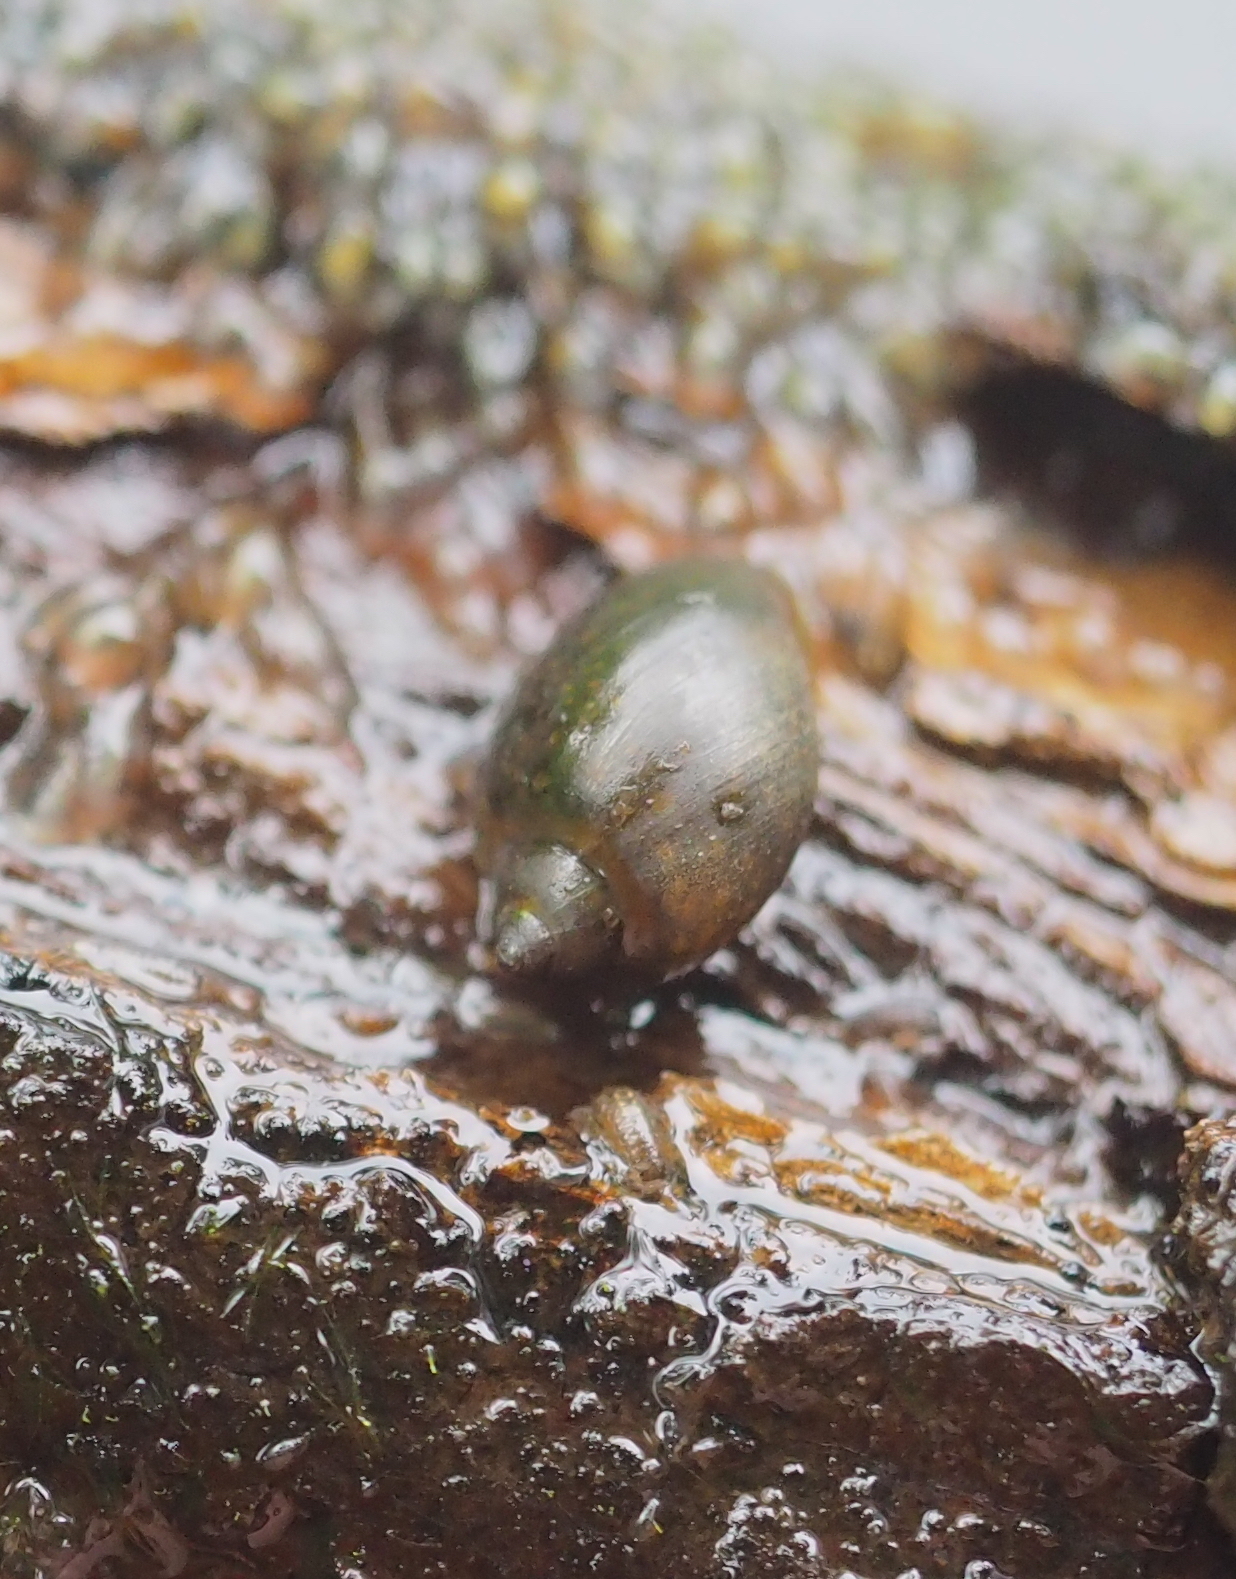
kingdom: Animalia
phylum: Mollusca
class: Gastropoda
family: Physidae
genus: Physella
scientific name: Physella acuta
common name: European physa
